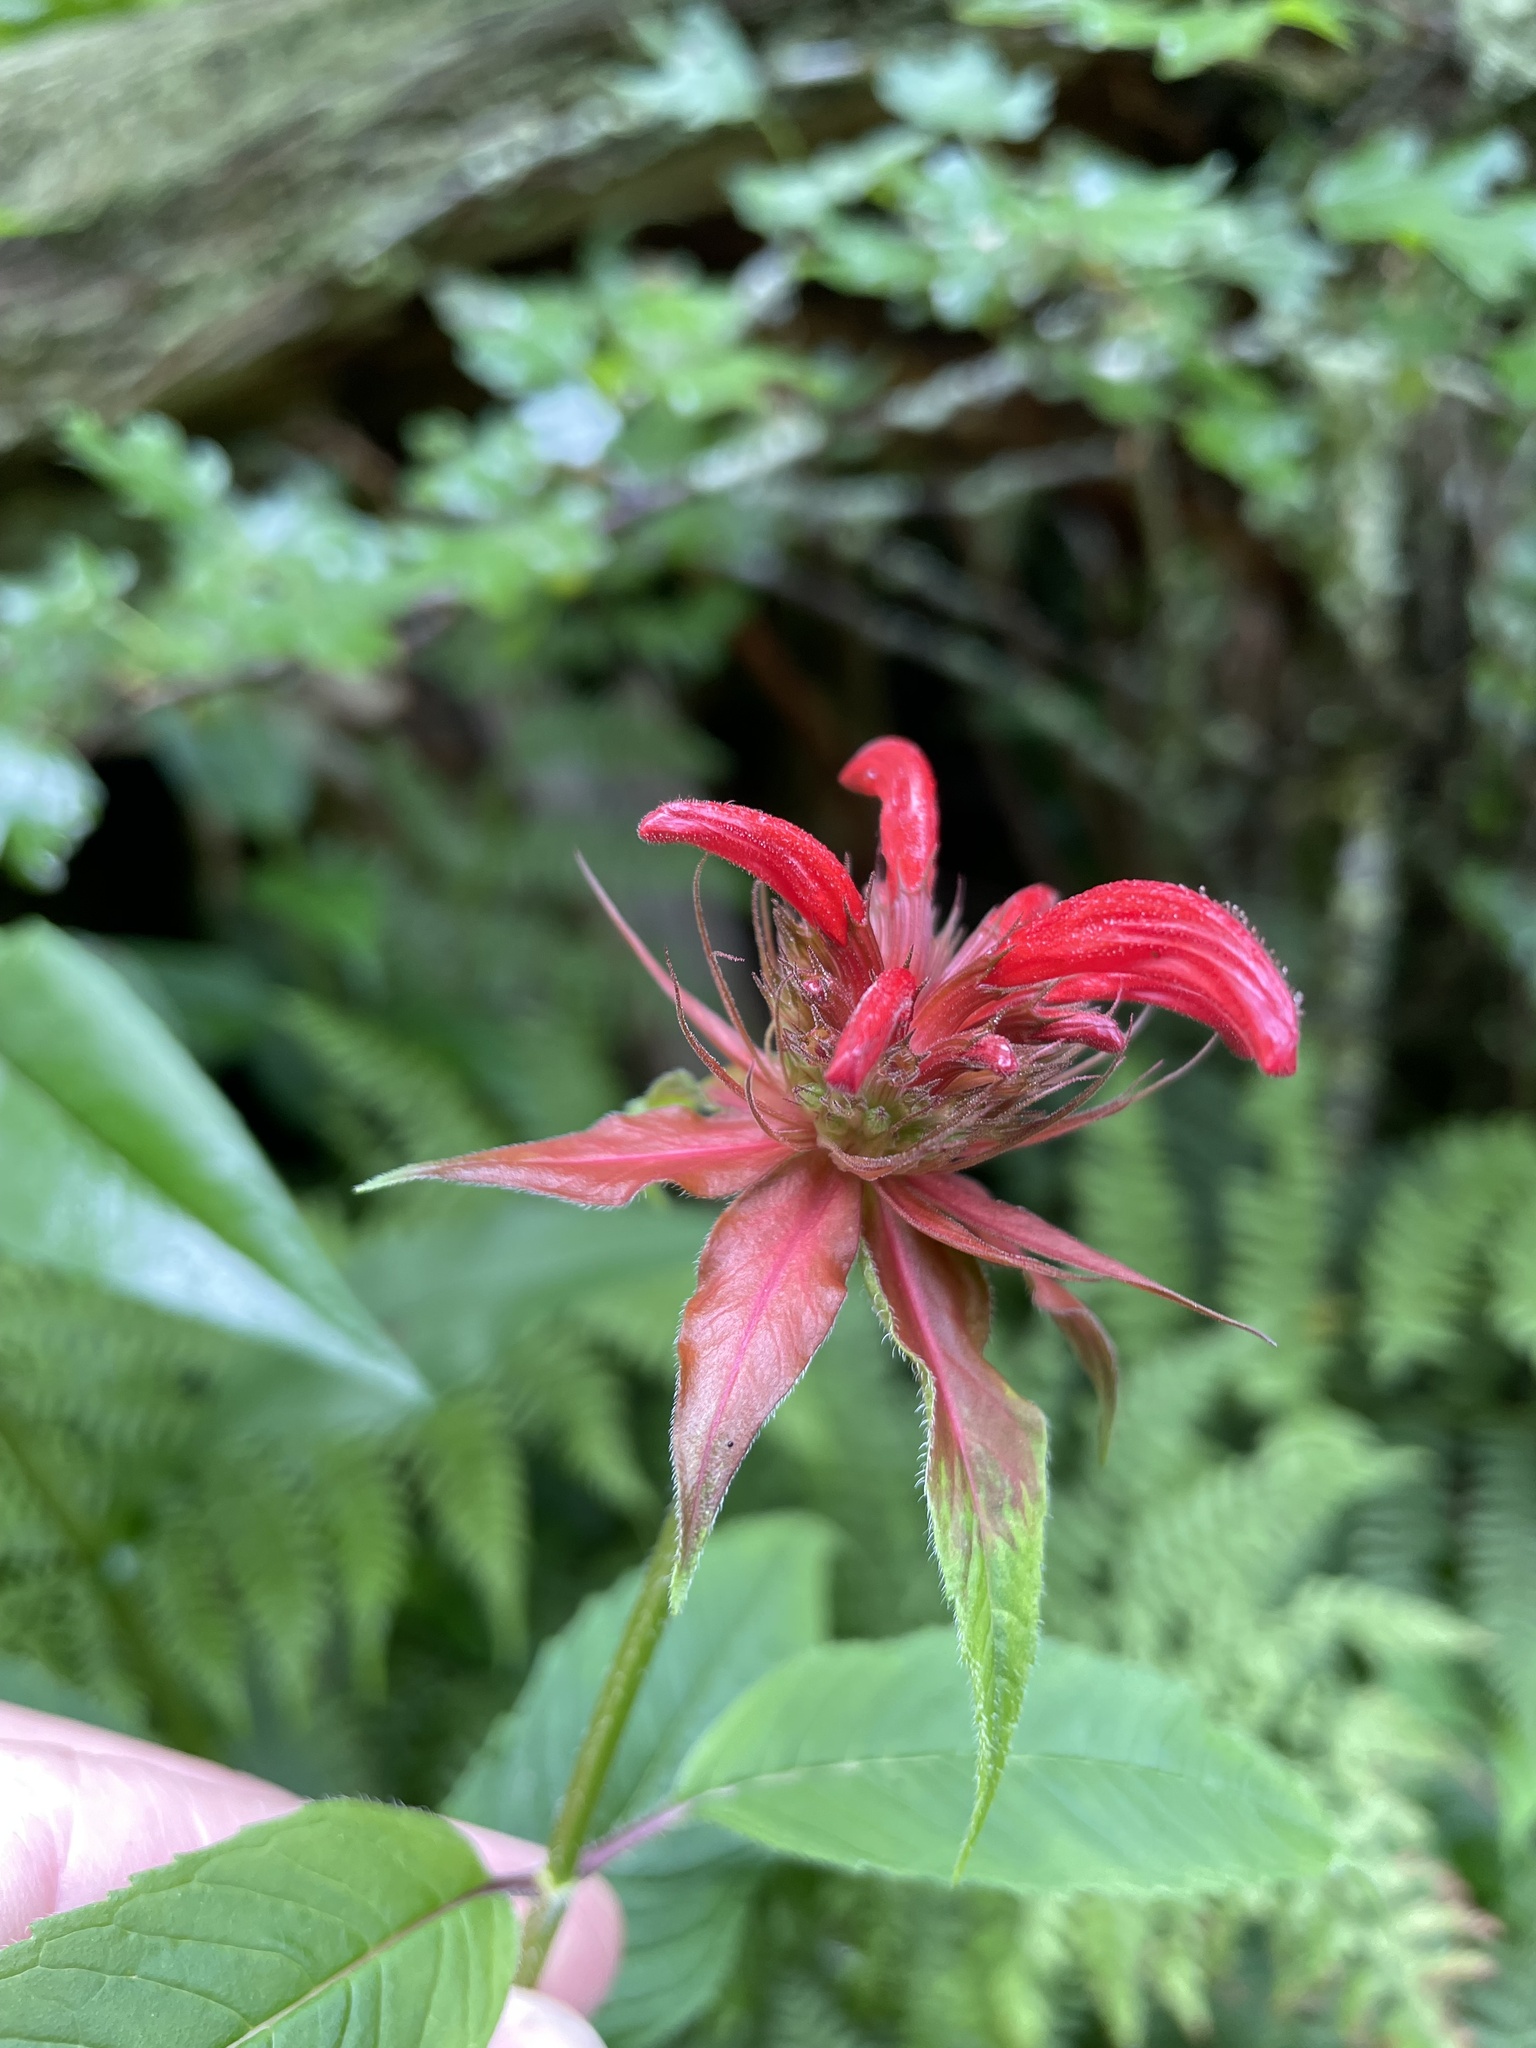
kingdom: Plantae
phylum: Tracheophyta
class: Magnoliopsida
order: Lamiales
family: Lamiaceae
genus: Monarda
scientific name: Monarda didyma
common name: Beebalm
